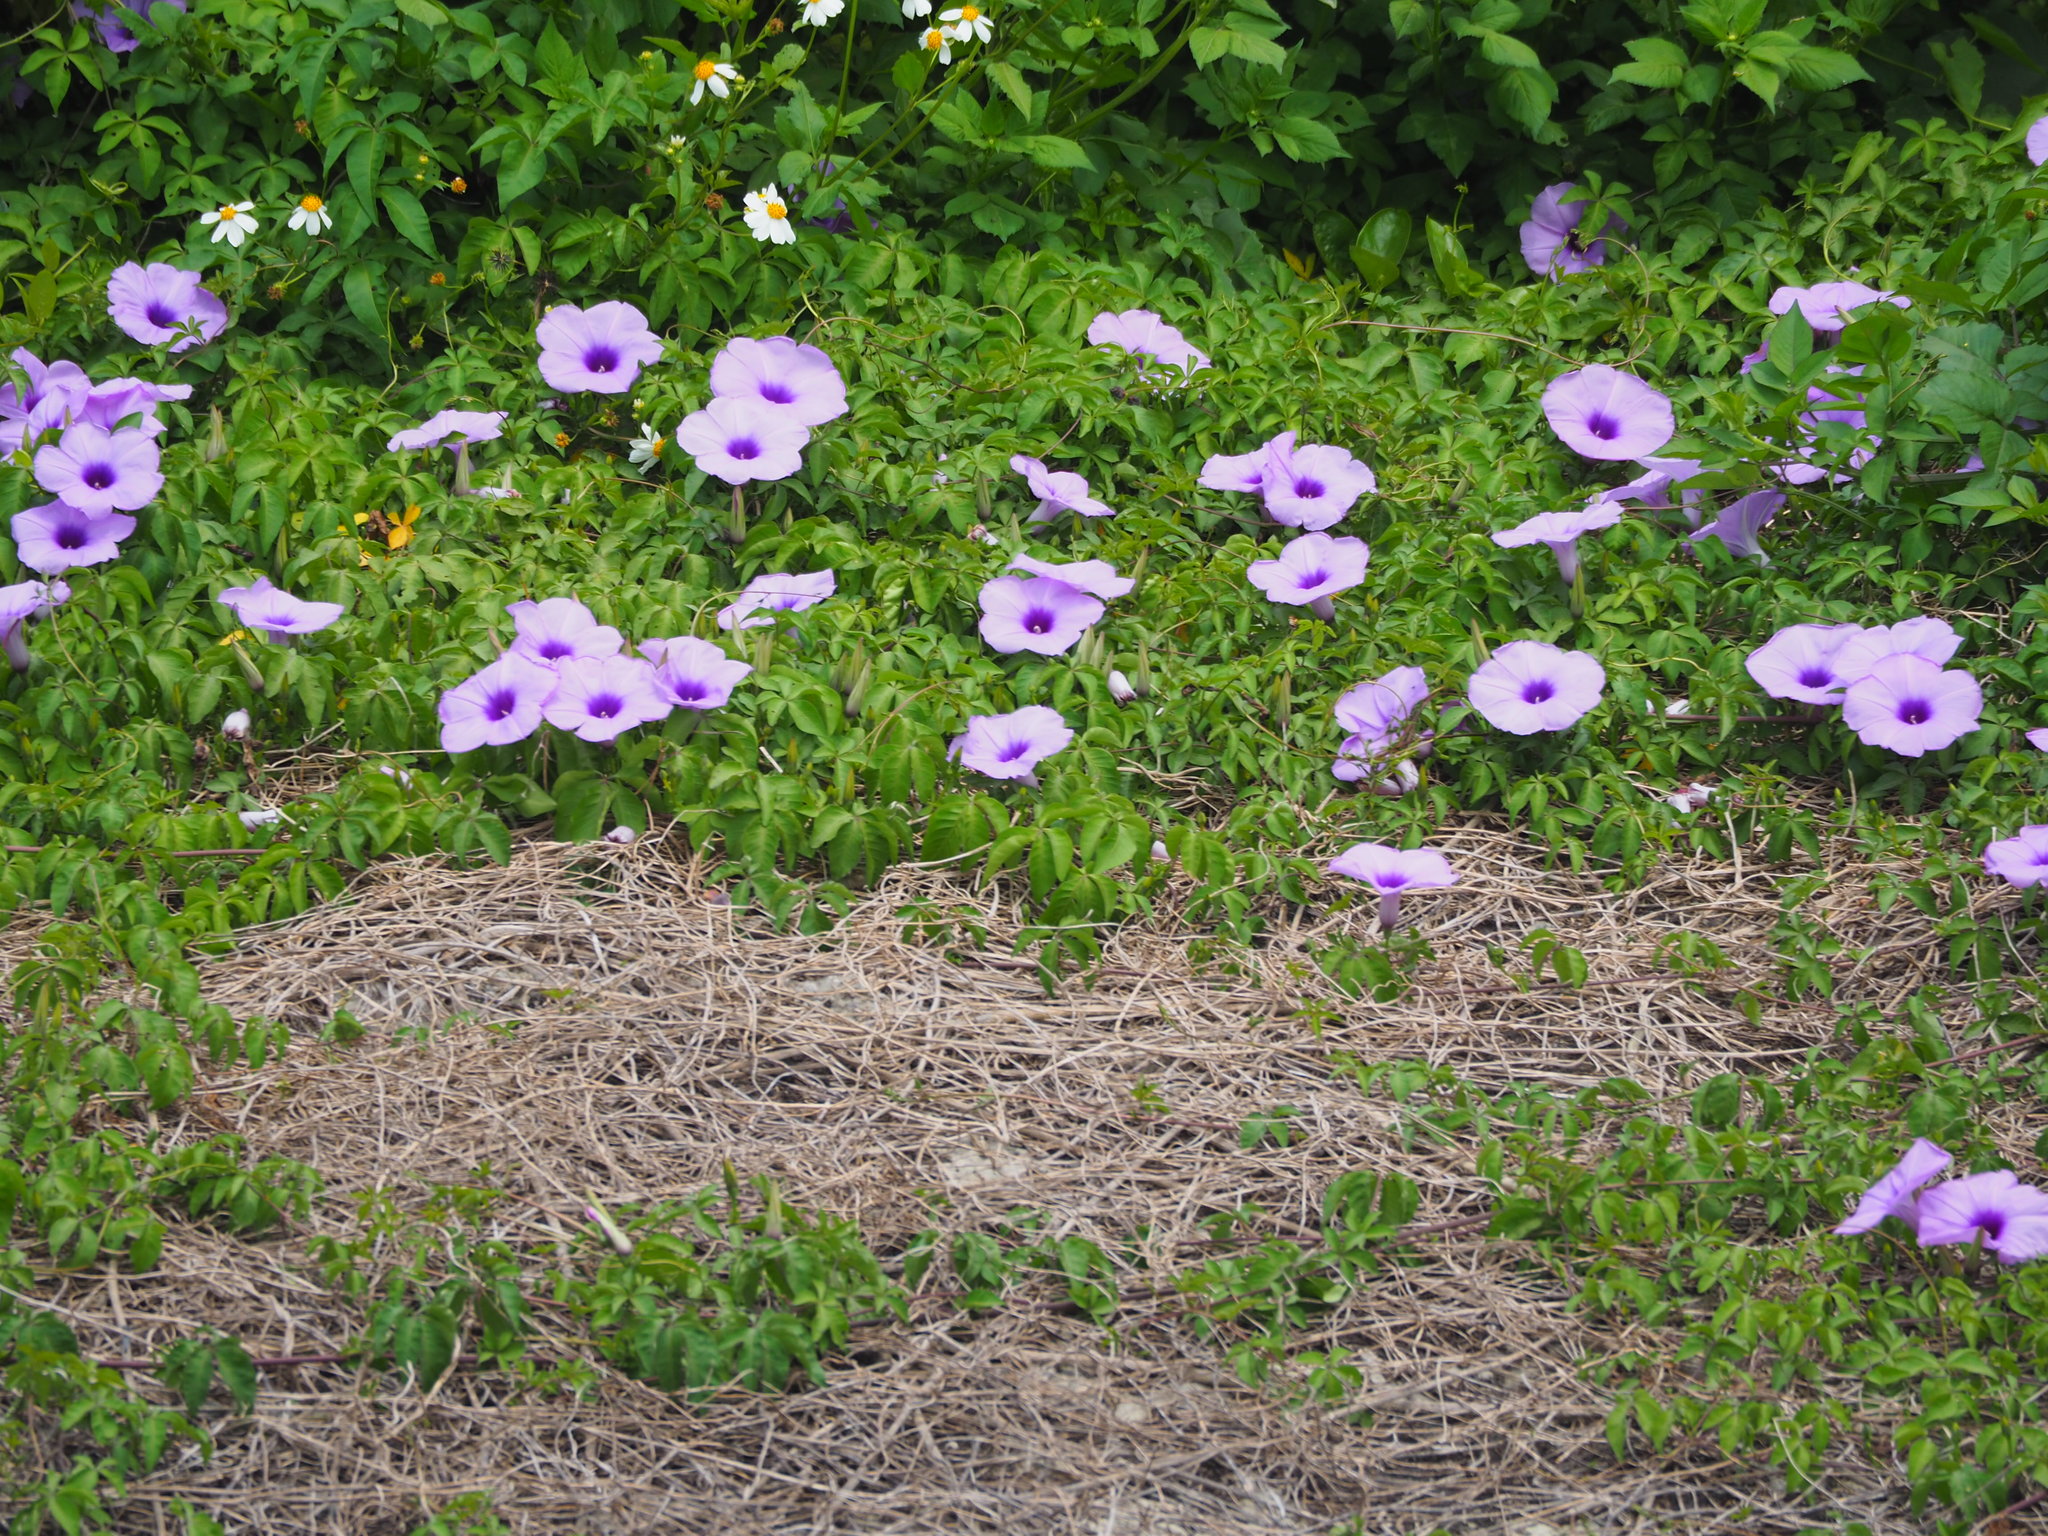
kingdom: Plantae
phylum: Tracheophyta
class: Magnoliopsida
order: Solanales
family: Convolvulaceae
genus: Ipomoea
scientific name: Ipomoea cairica
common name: Mile a minute vine
